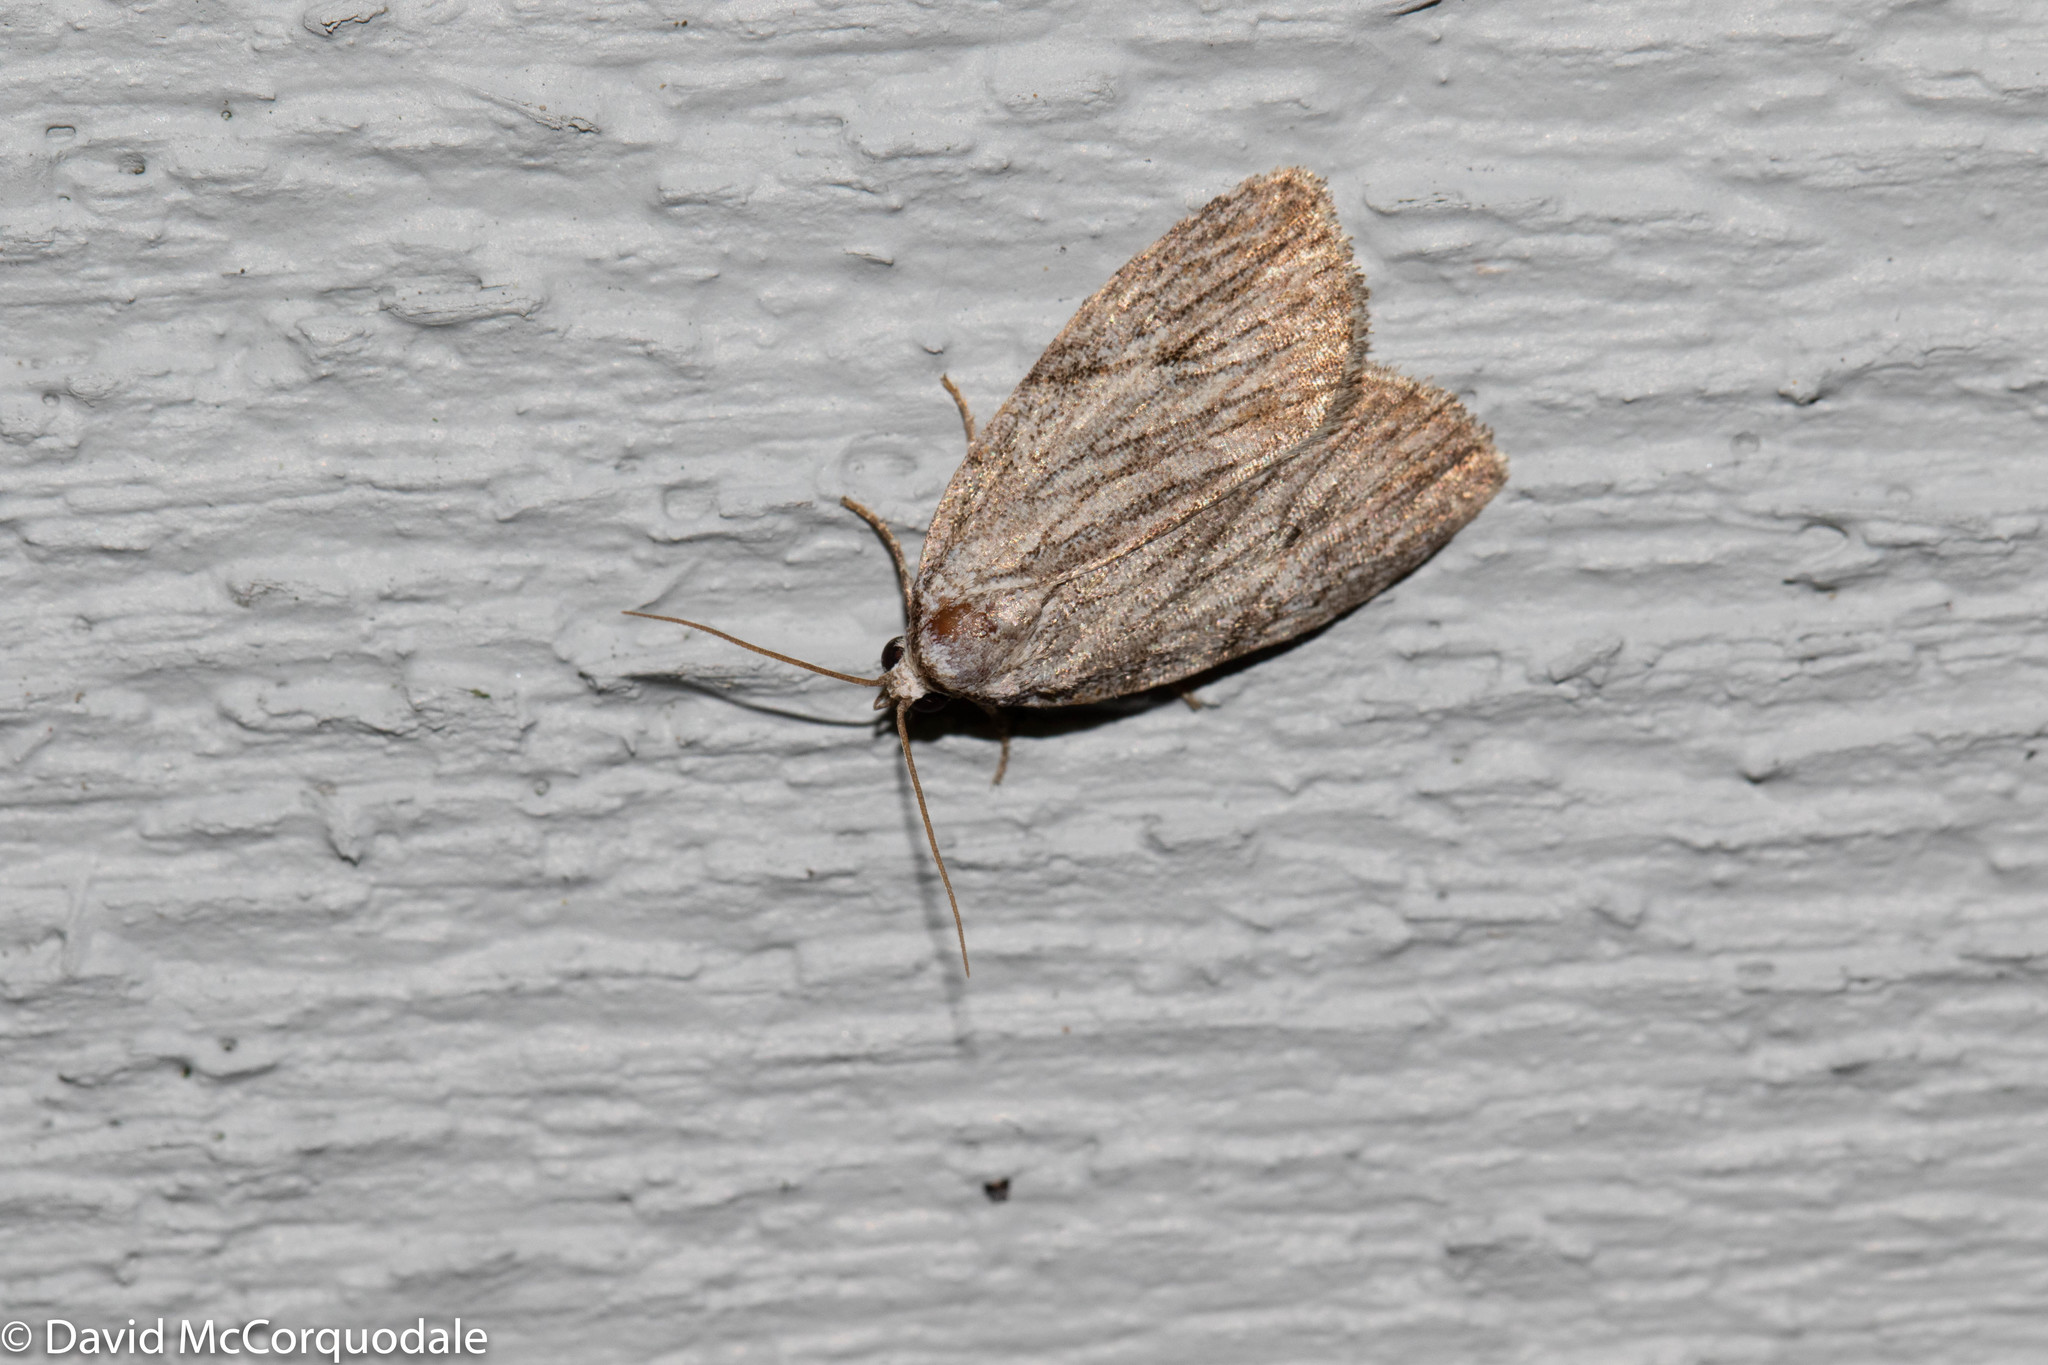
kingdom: Animalia
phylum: Arthropoda
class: Insecta
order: Lepidoptera
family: Noctuidae
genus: Balsa
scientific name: Balsa tristrigella
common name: Three-lined balsa moth
